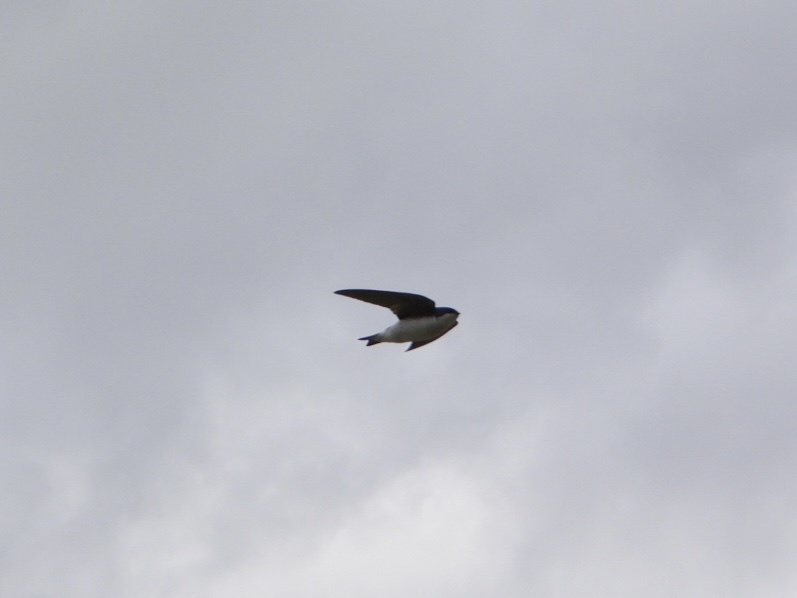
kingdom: Animalia
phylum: Chordata
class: Aves
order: Passeriformes
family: Hirundinidae
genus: Tachycineta
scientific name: Tachycineta bicolor
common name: Tree swallow
